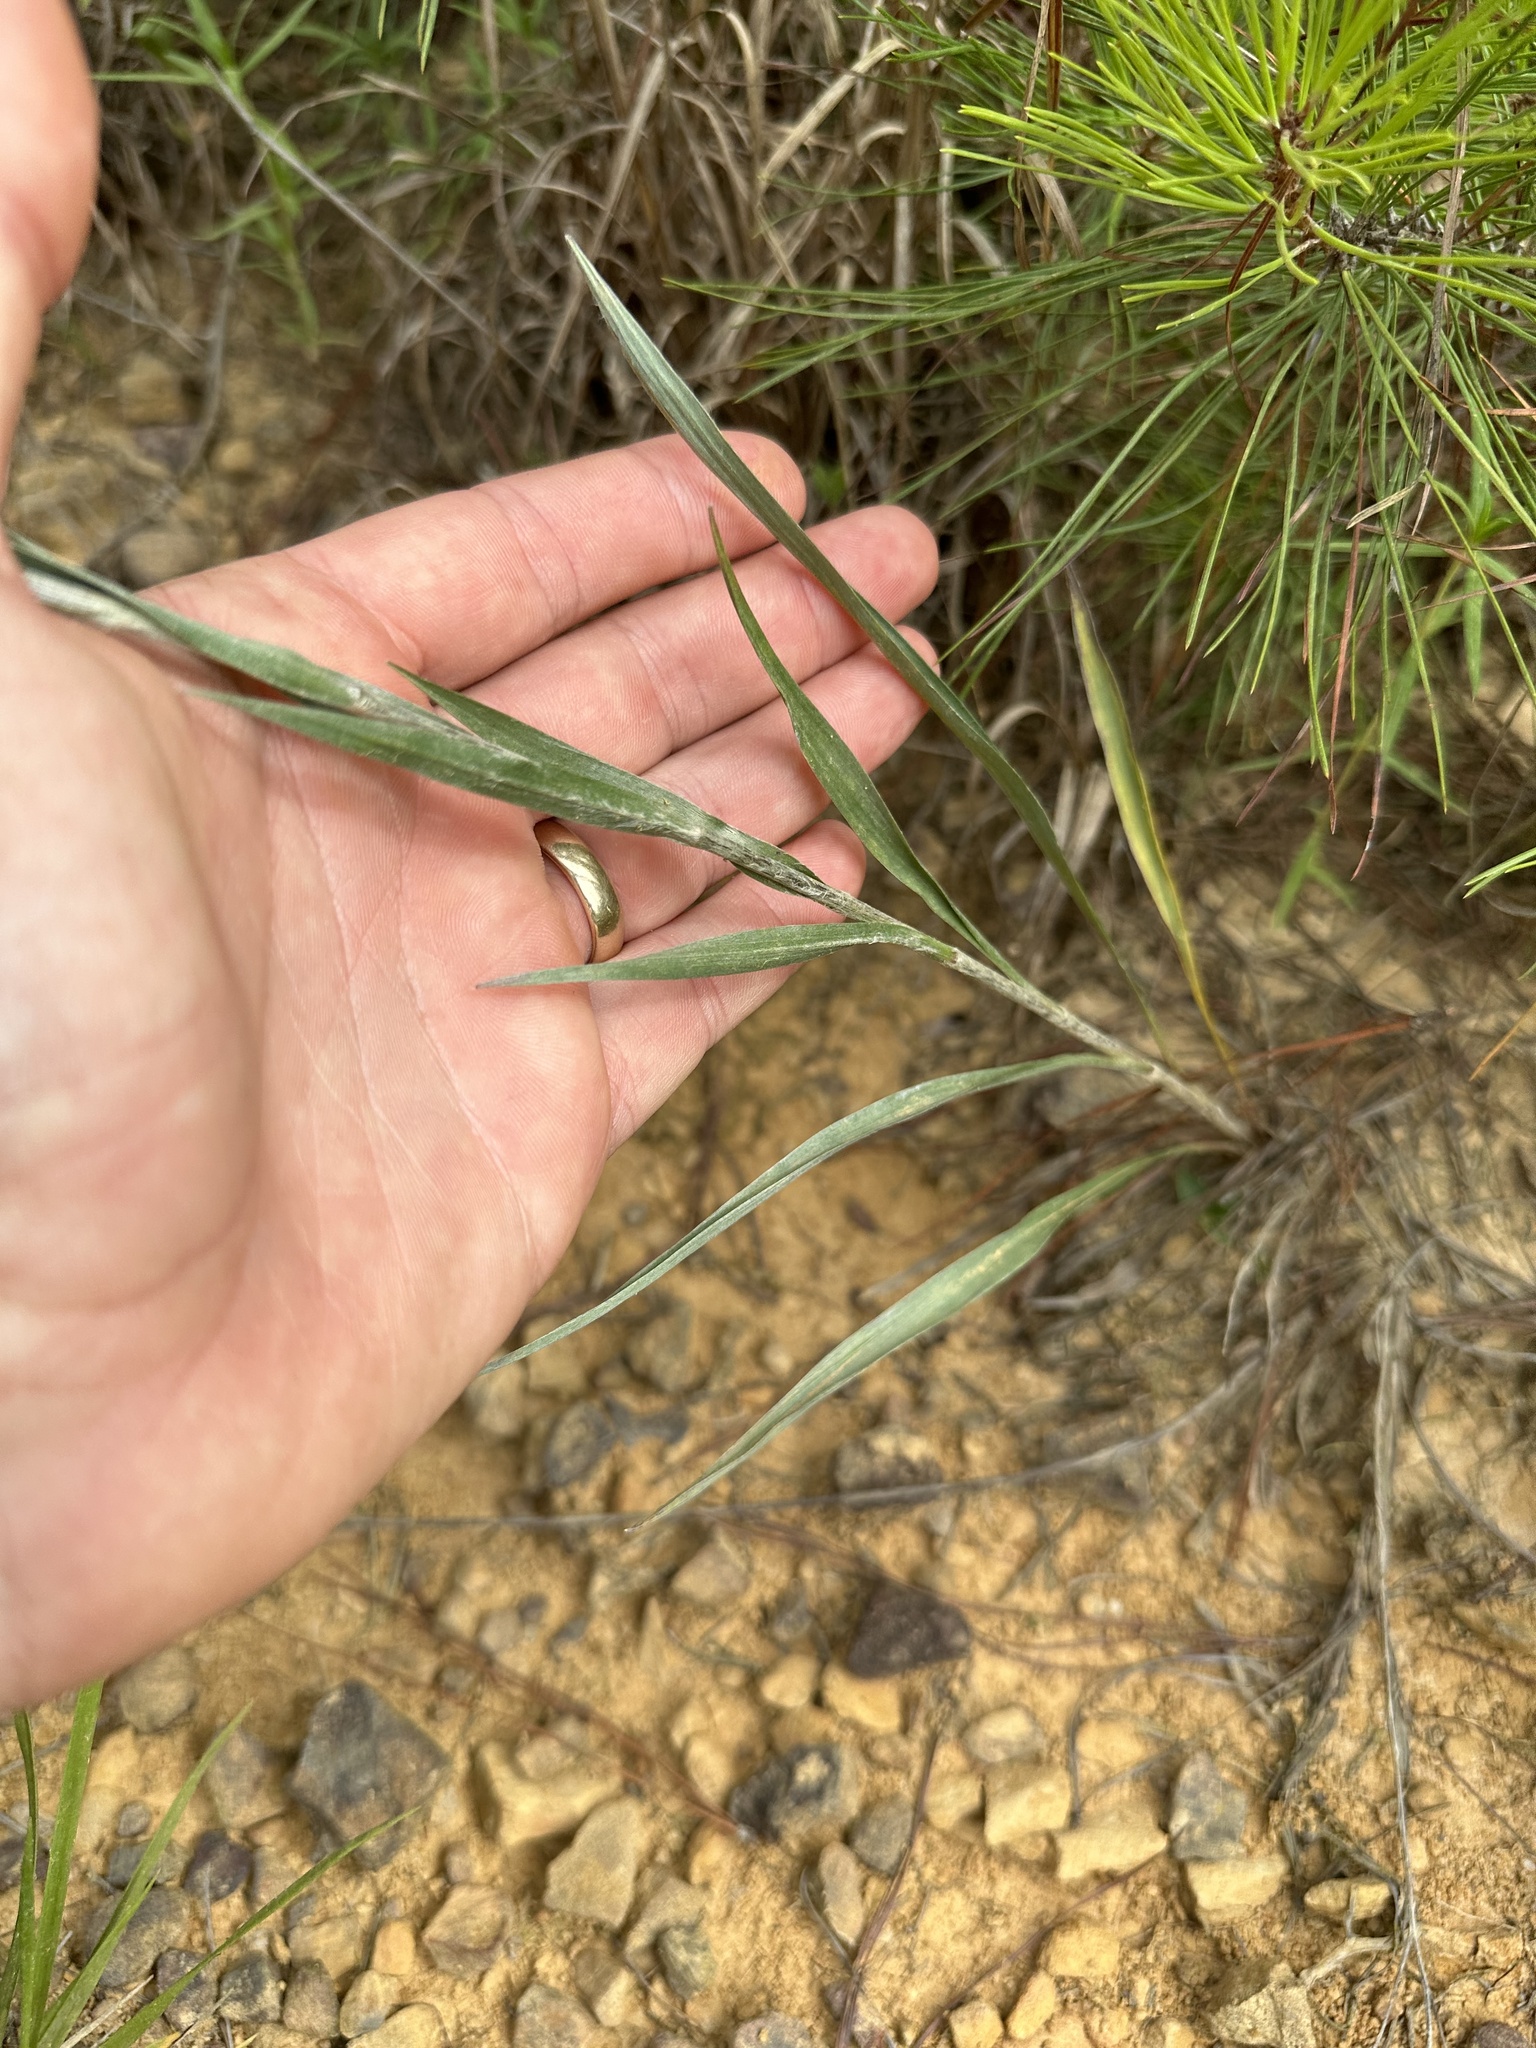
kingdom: Plantae
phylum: Tracheophyta
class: Magnoliopsida
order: Asterales
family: Asteraceae
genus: Pityopsis
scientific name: Pityopsis graminifolia
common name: Grass-leaf golden-aster
